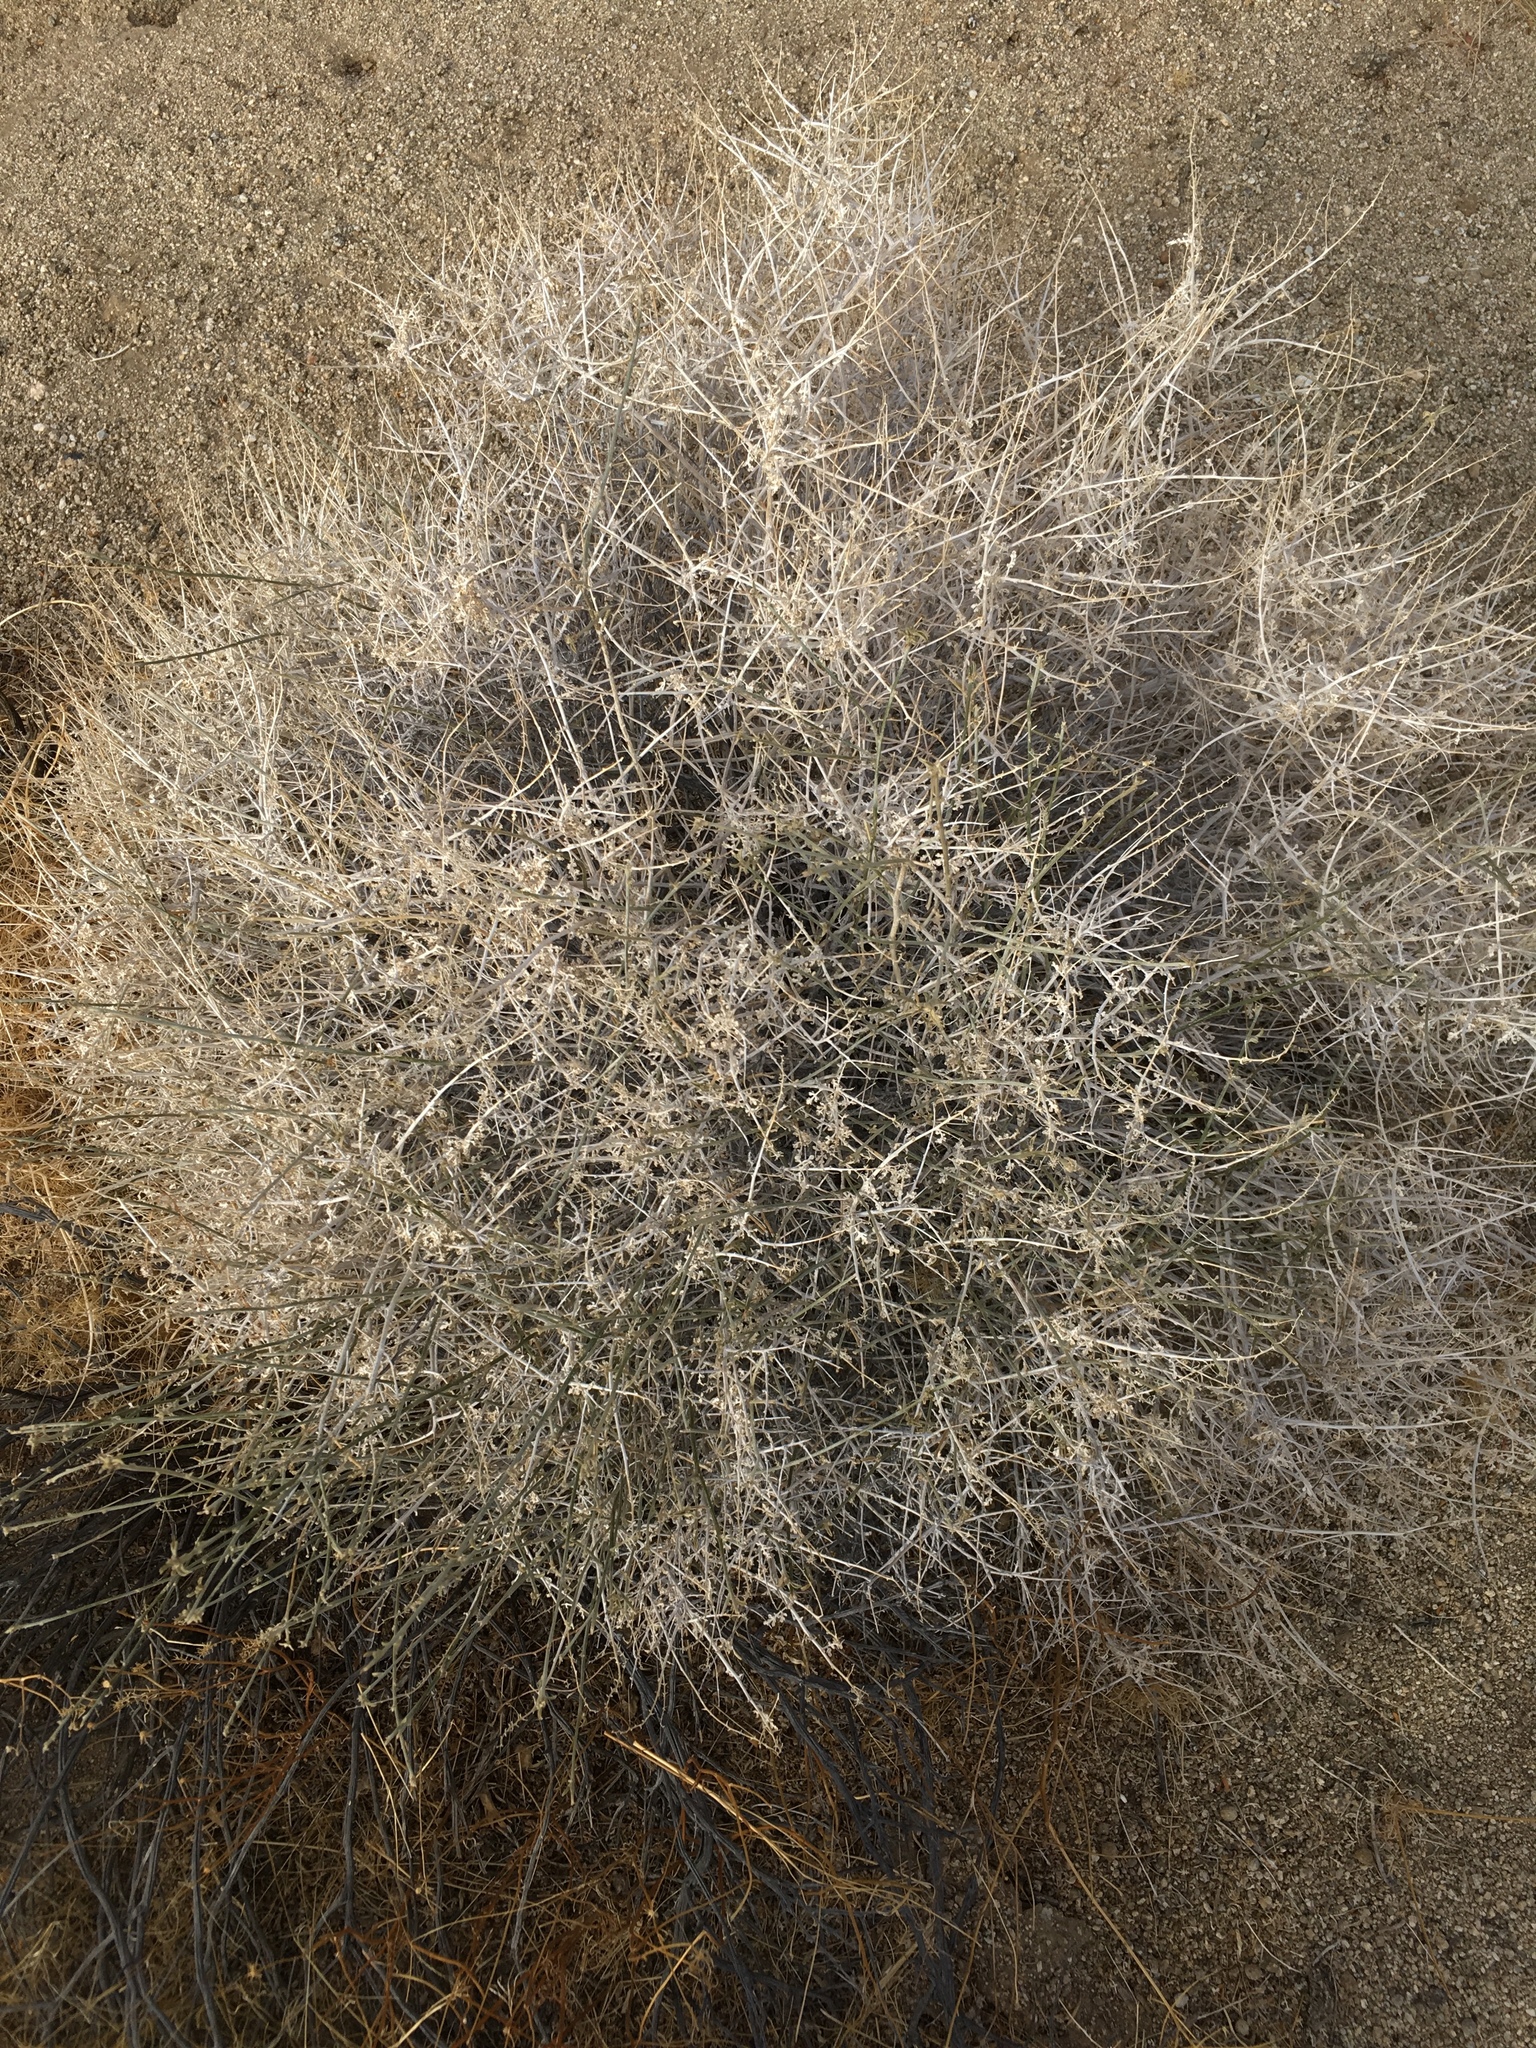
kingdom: Plantae
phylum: Tracheophyta
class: Magnoliopsida
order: Asterales
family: Asteraceae
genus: Ambrosia
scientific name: Ambrosia dumosa
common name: Bur-sage
